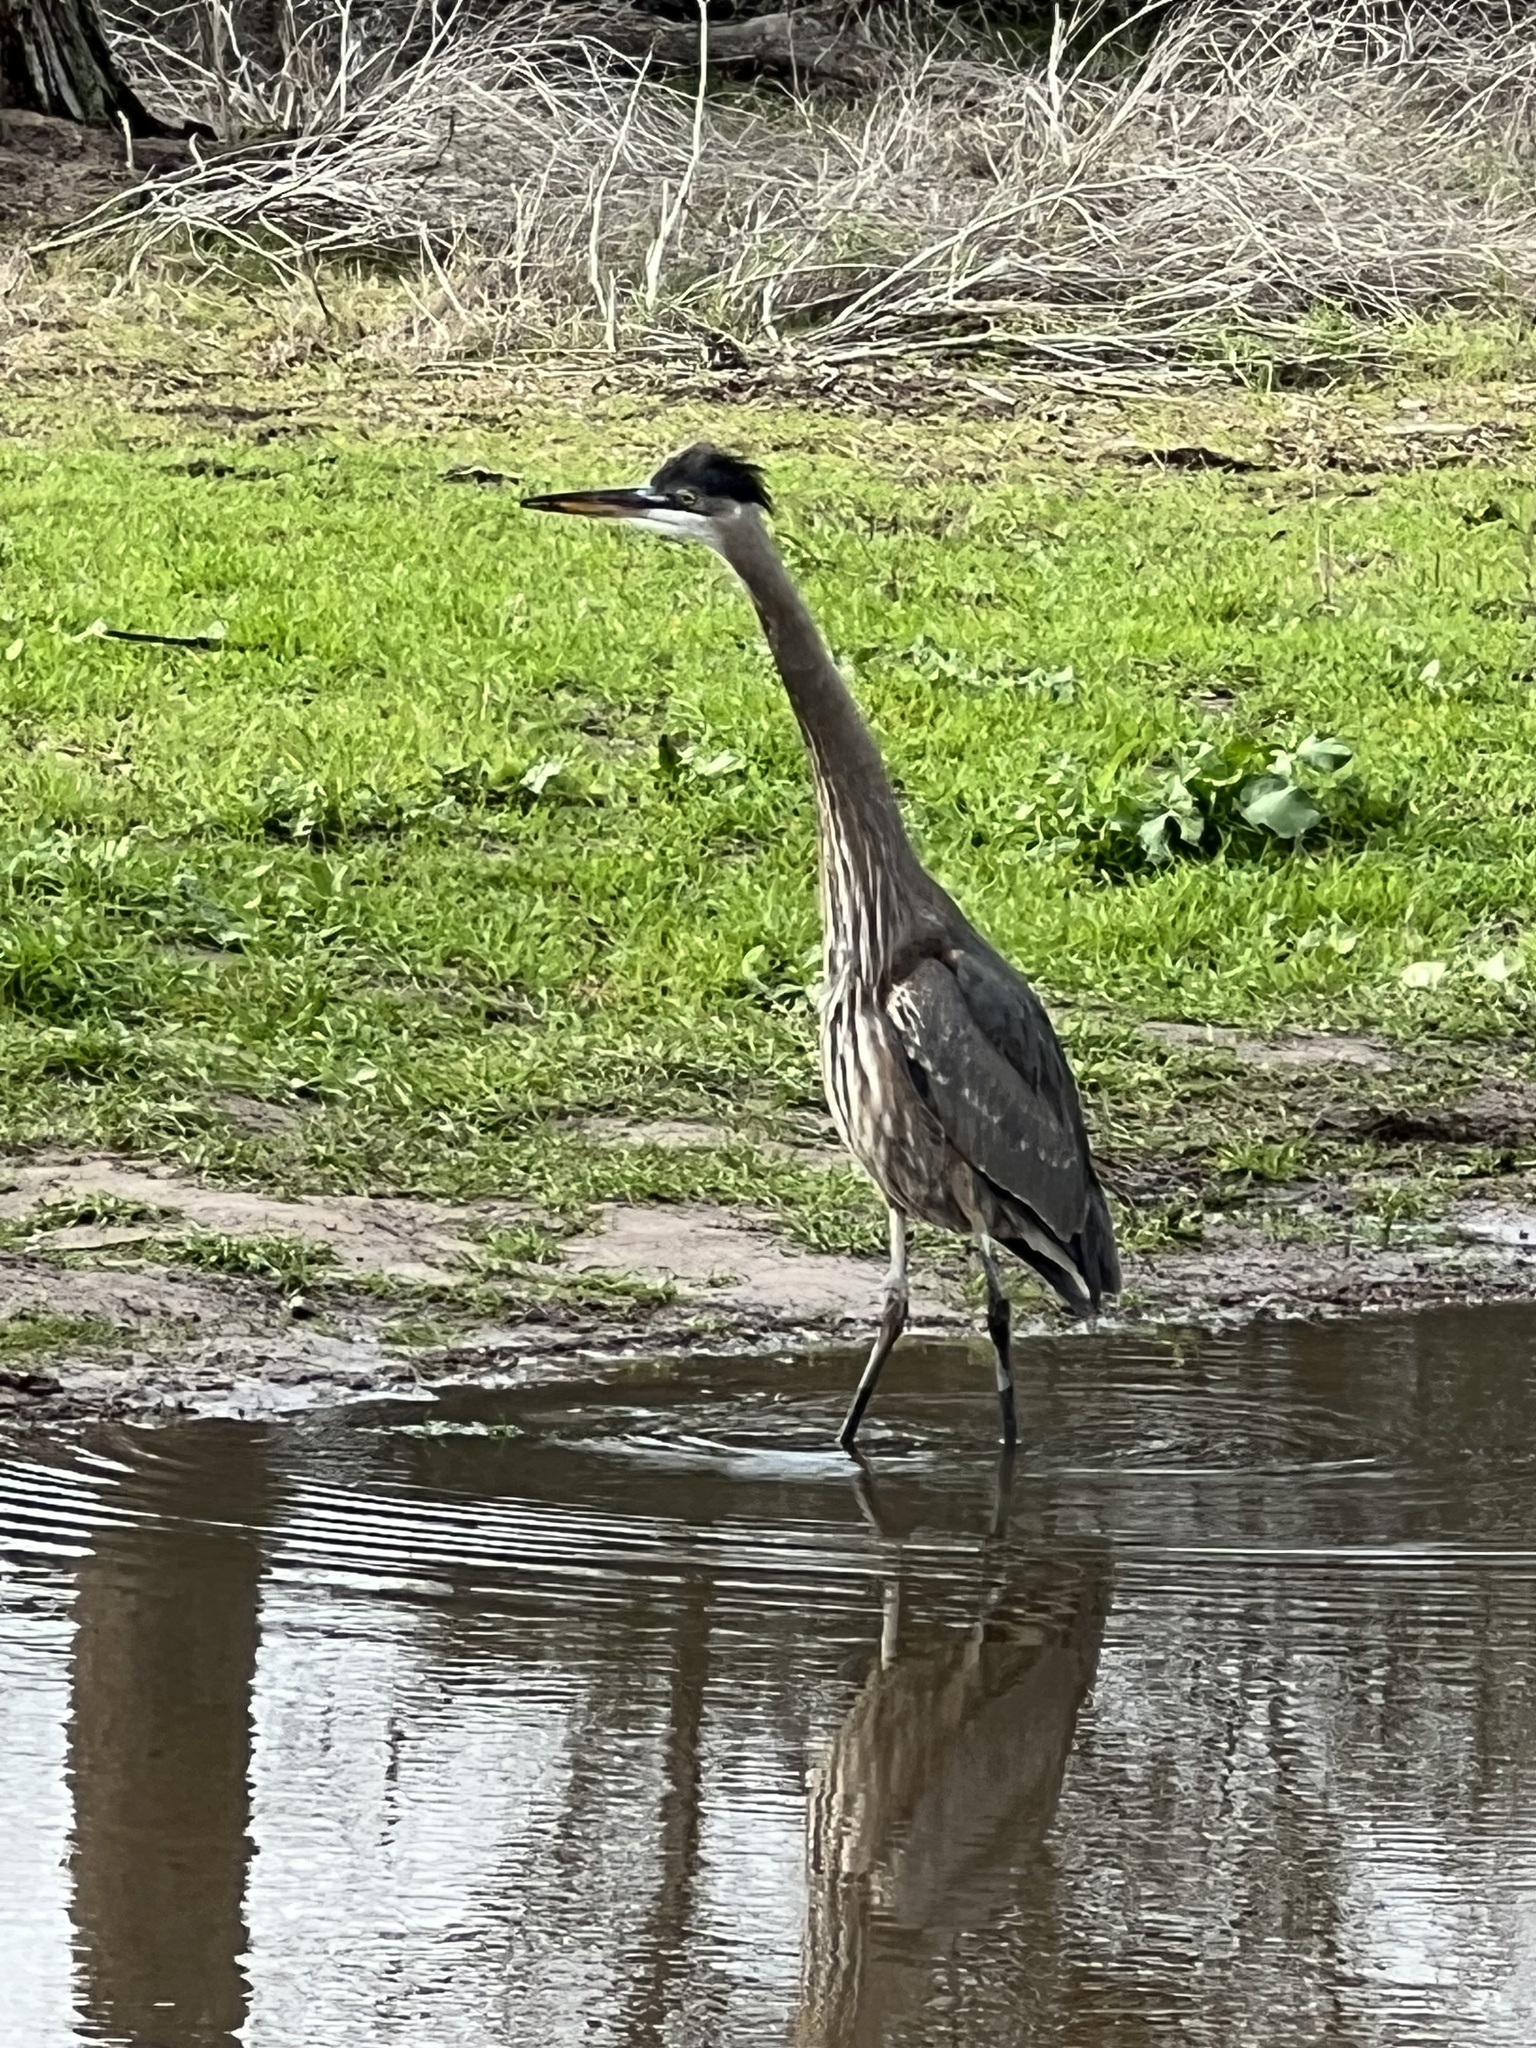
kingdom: Animalia
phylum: Chordata
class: Aves
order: Pelecaniformes
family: Ardeidae
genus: Ardea
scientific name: Ardea herodias
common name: Great blue heron
